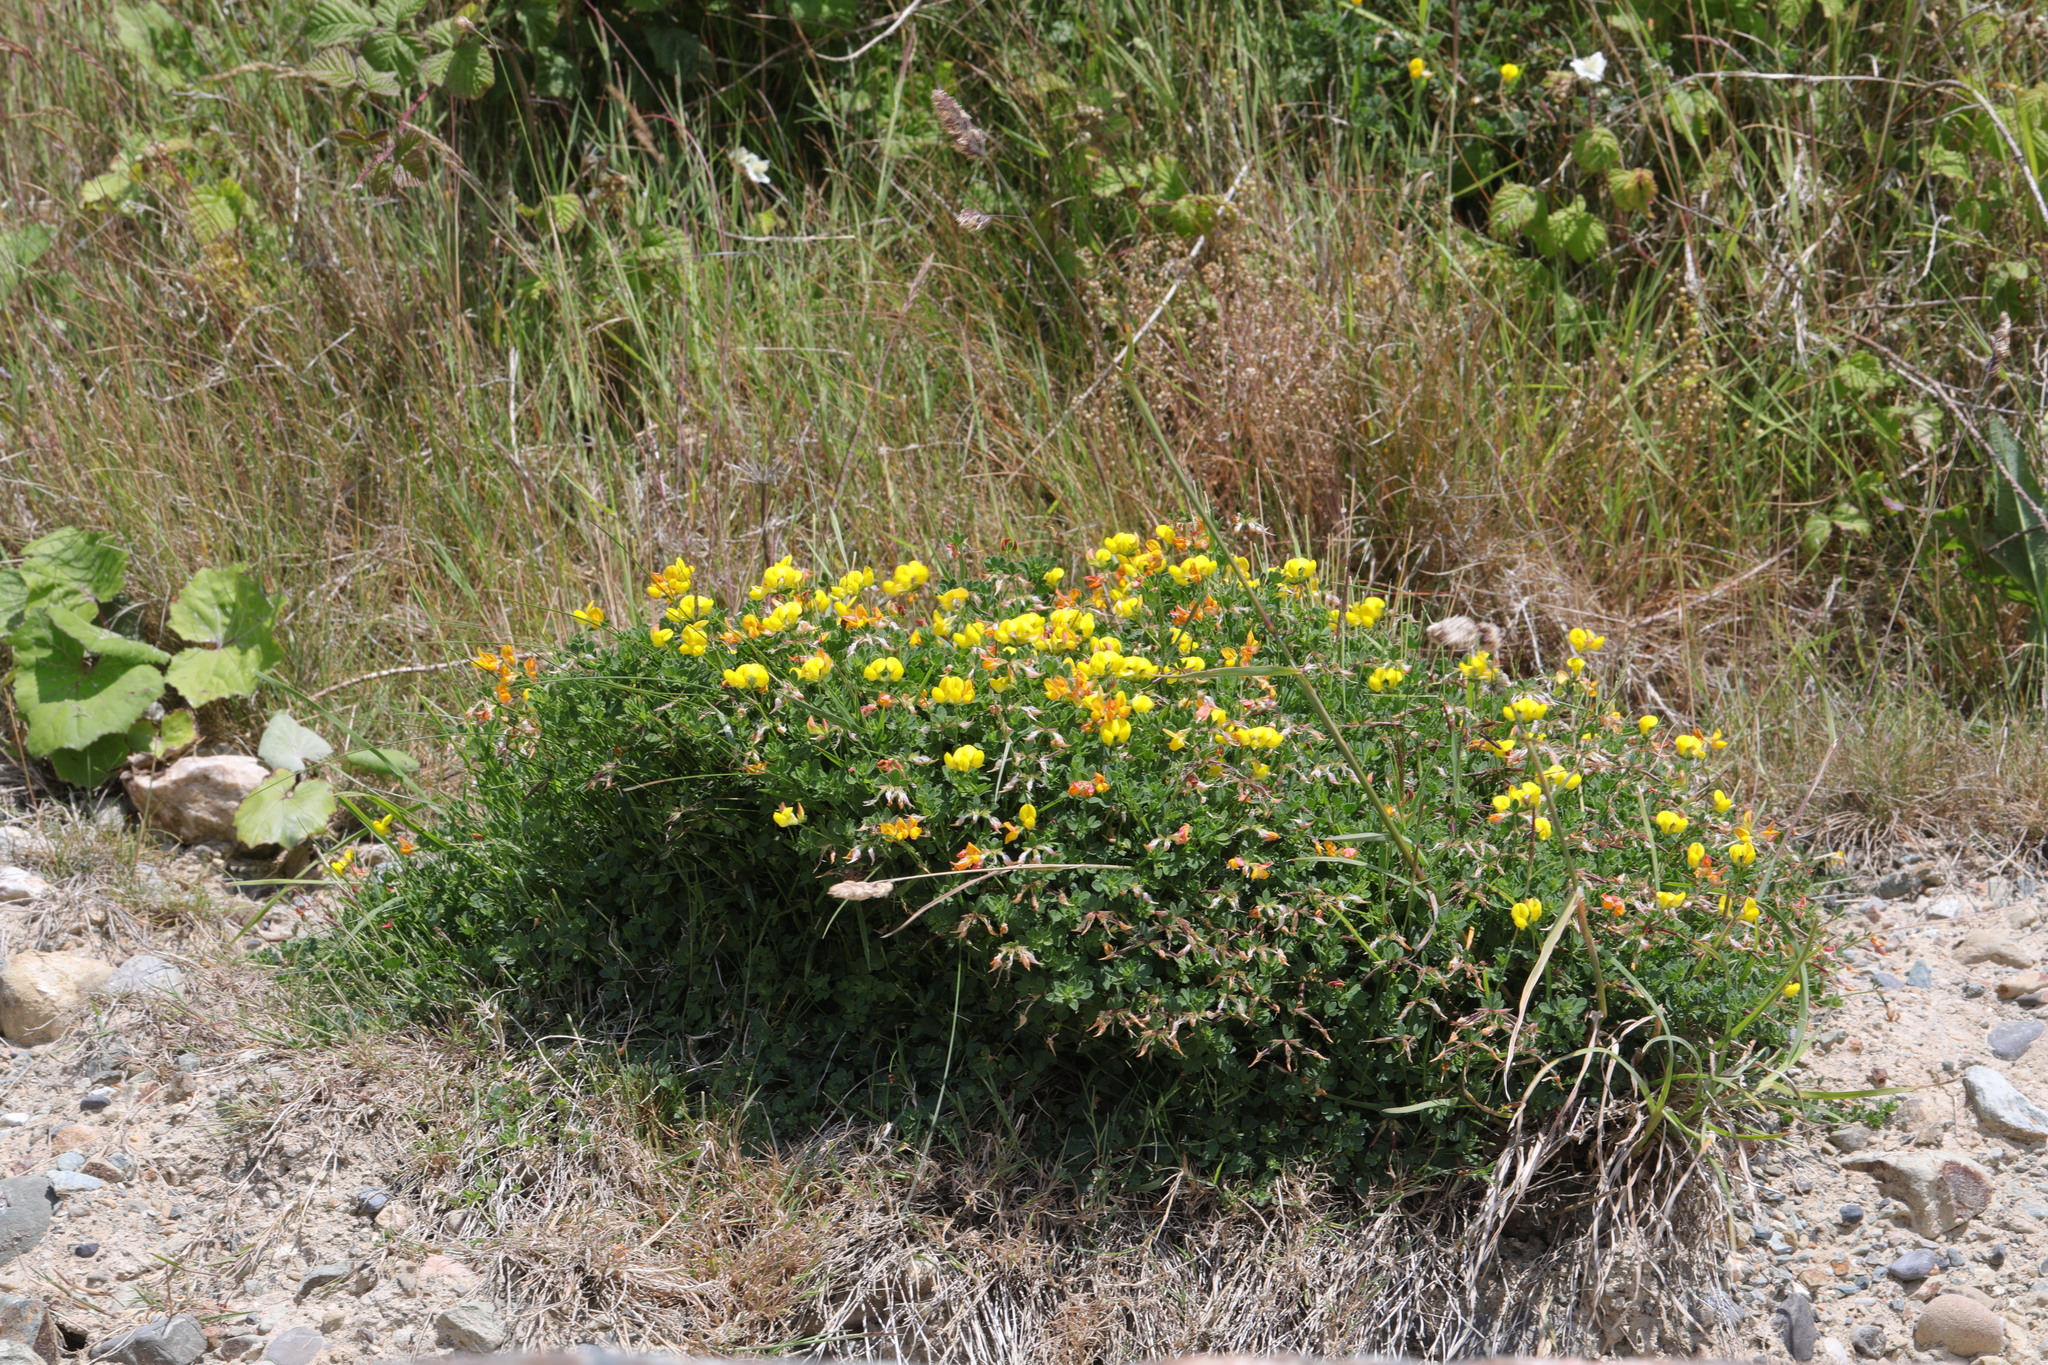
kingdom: Plantae
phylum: Tracheophyta
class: Magnoliopsida
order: Fabales
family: Fabaceae
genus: Lotus
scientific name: Lotus corniculatus
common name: Common bird's-foot-trefoil
